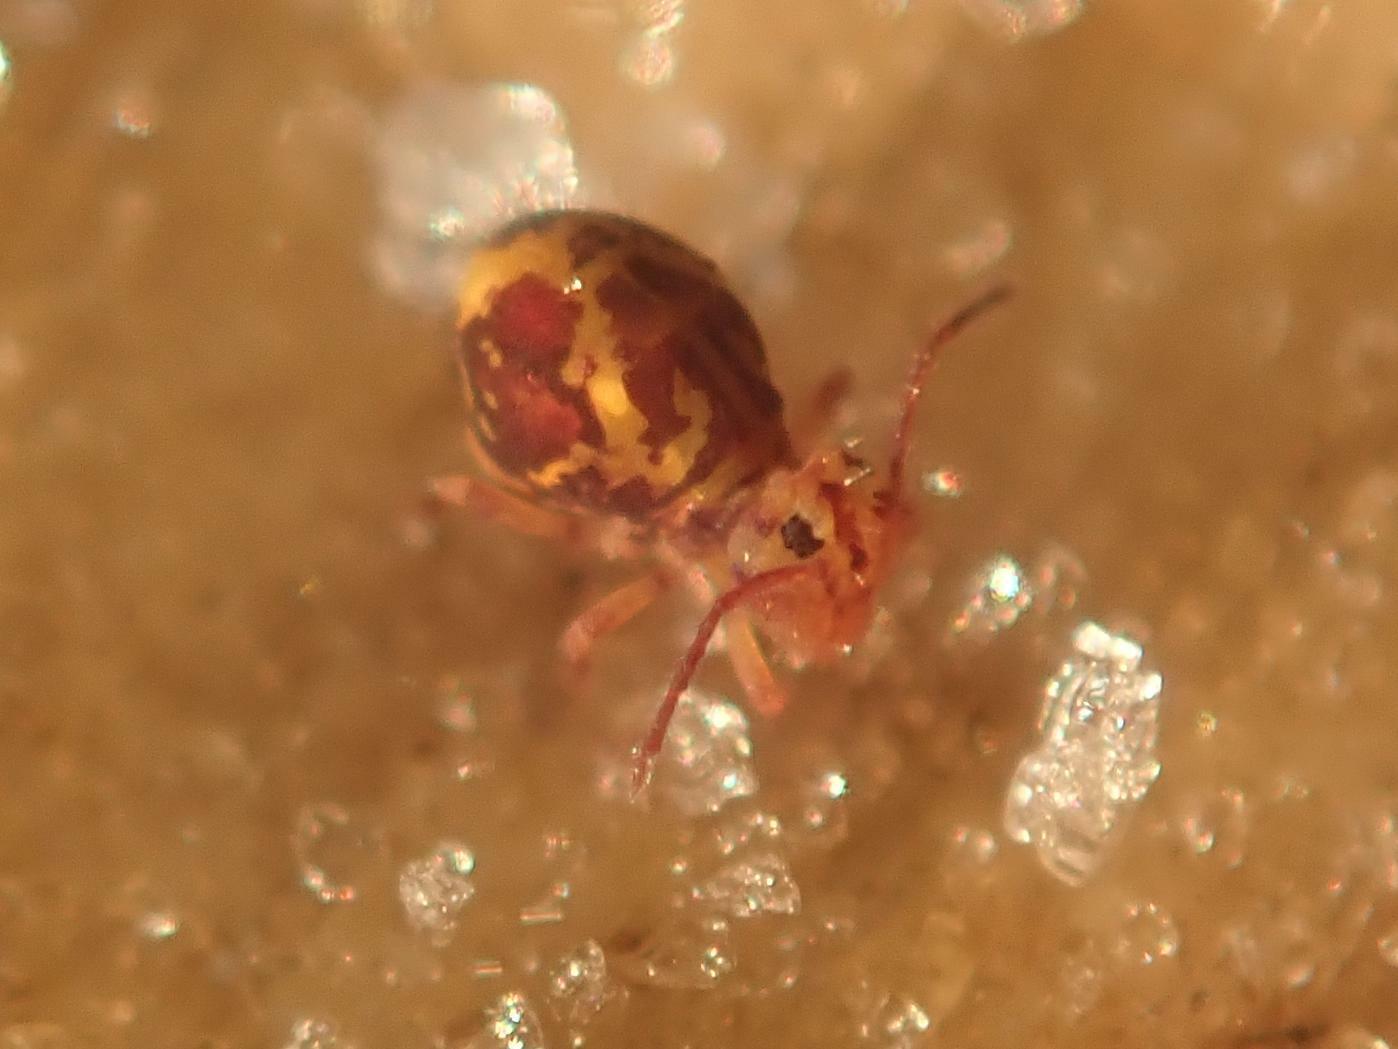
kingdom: Animalia
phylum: Arthropoda
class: Collembola
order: Symphypleona
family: Dicyrtomidae
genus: Dicyrtomina
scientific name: Dicyrtomina ornata
